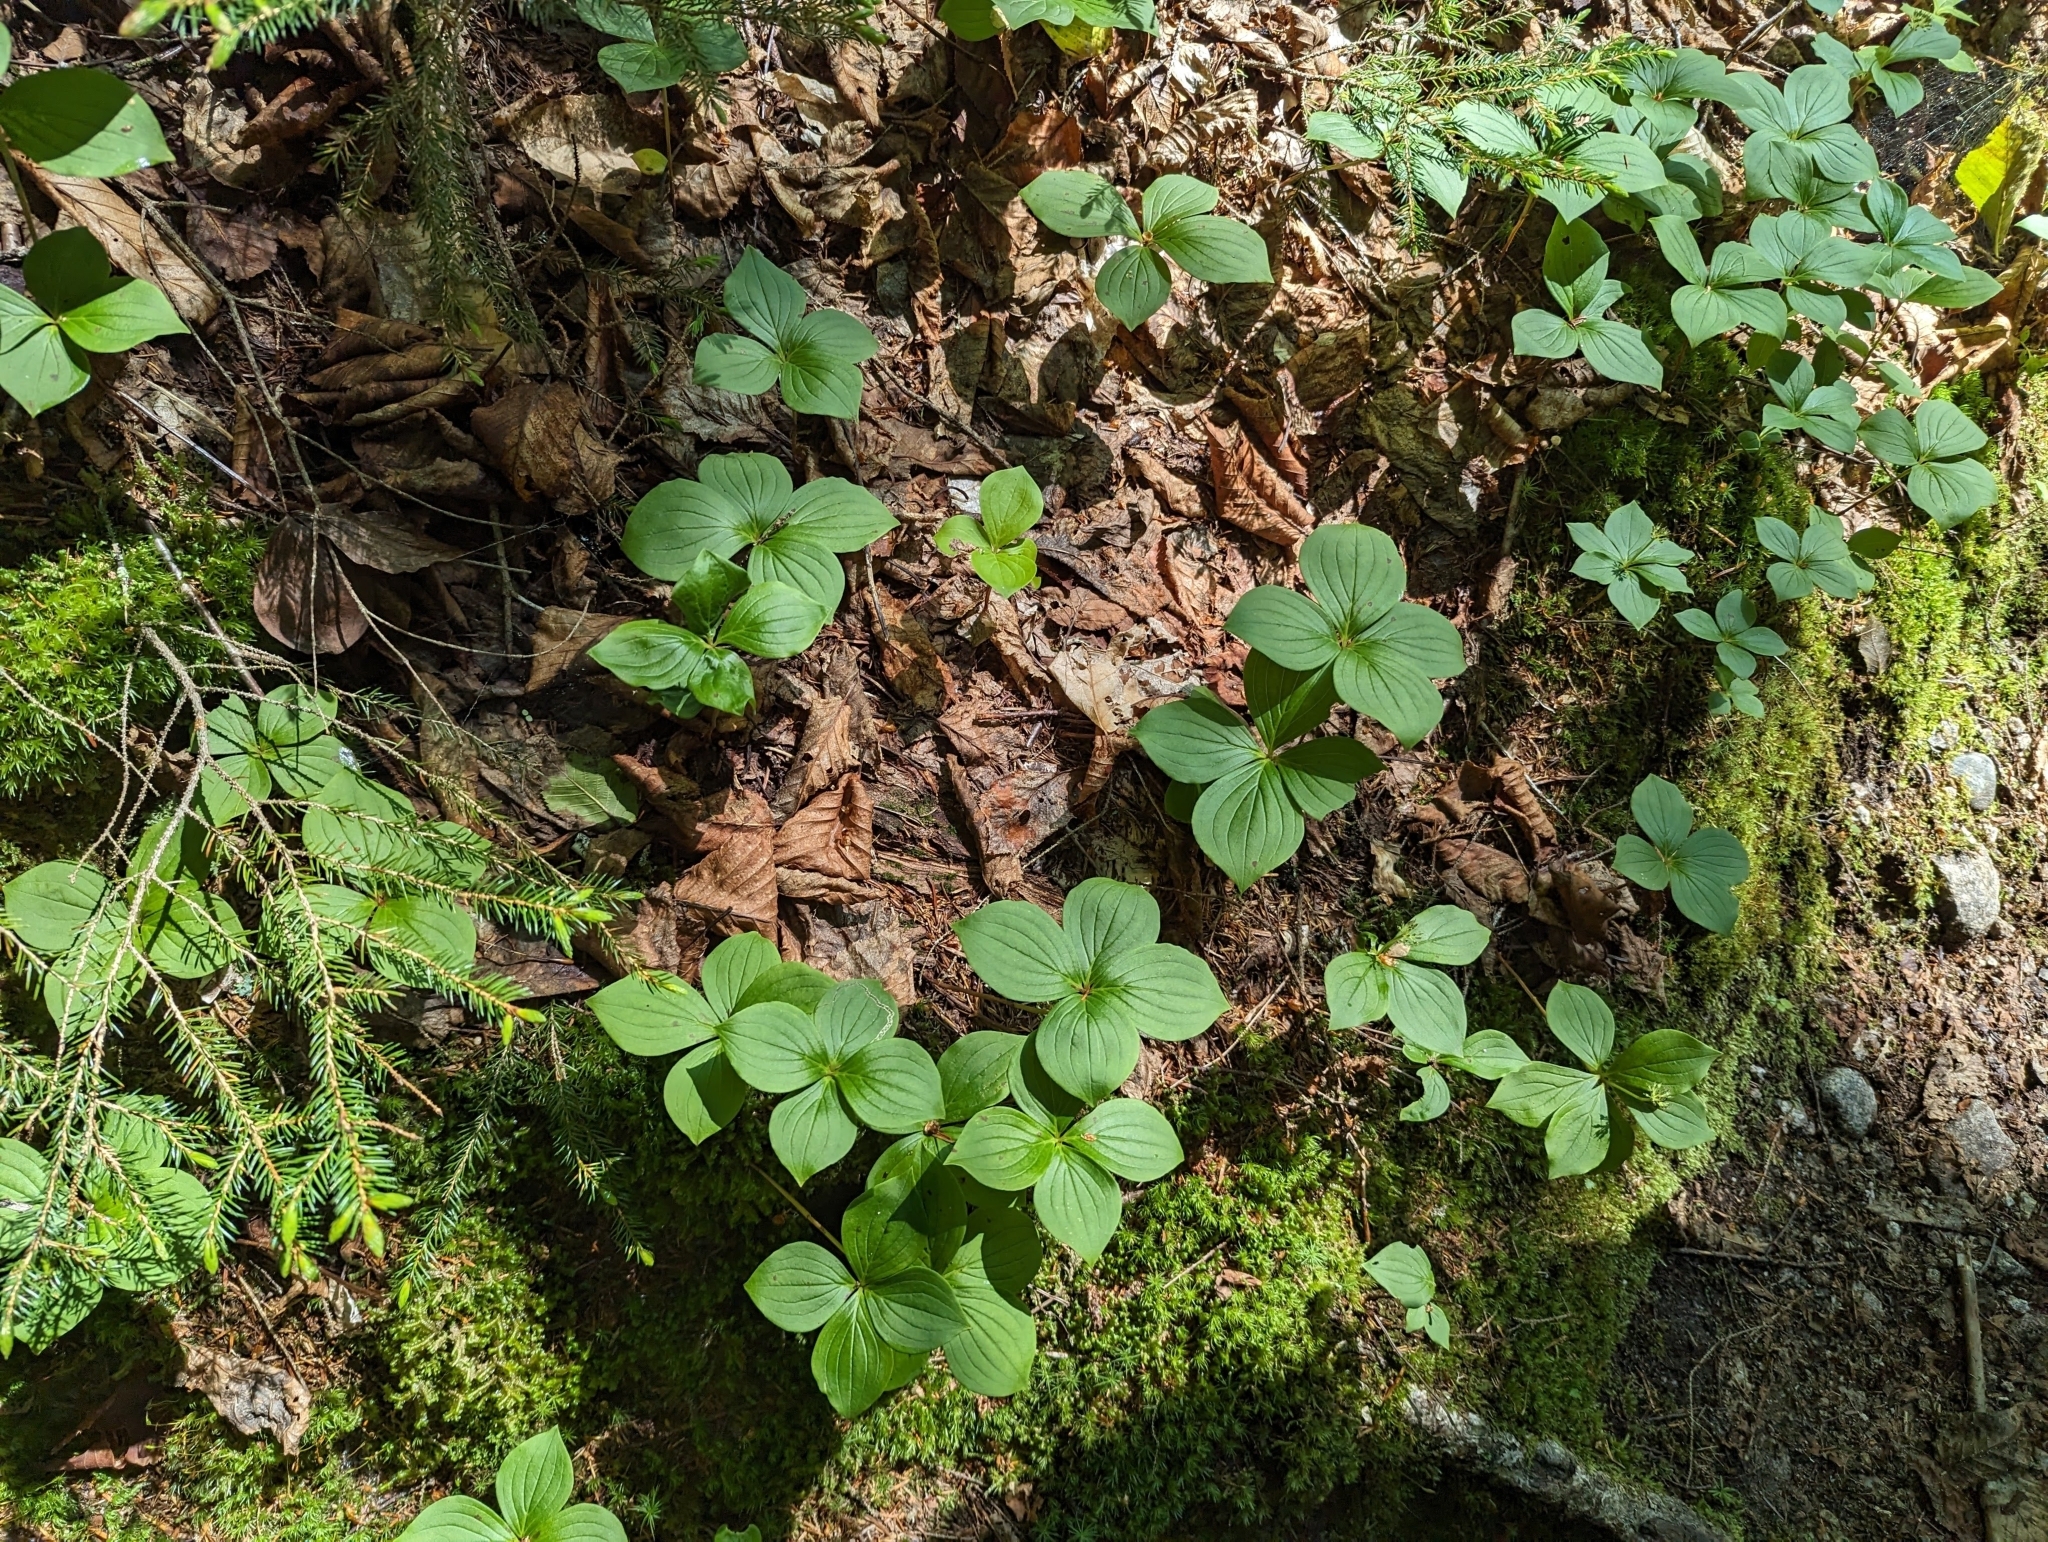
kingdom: Plantae
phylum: Tracheophyta
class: Magnoliopsida
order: Cornales
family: Cornaceae
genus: Cornus
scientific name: Cornus canadensis
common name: Creeping dogwood
